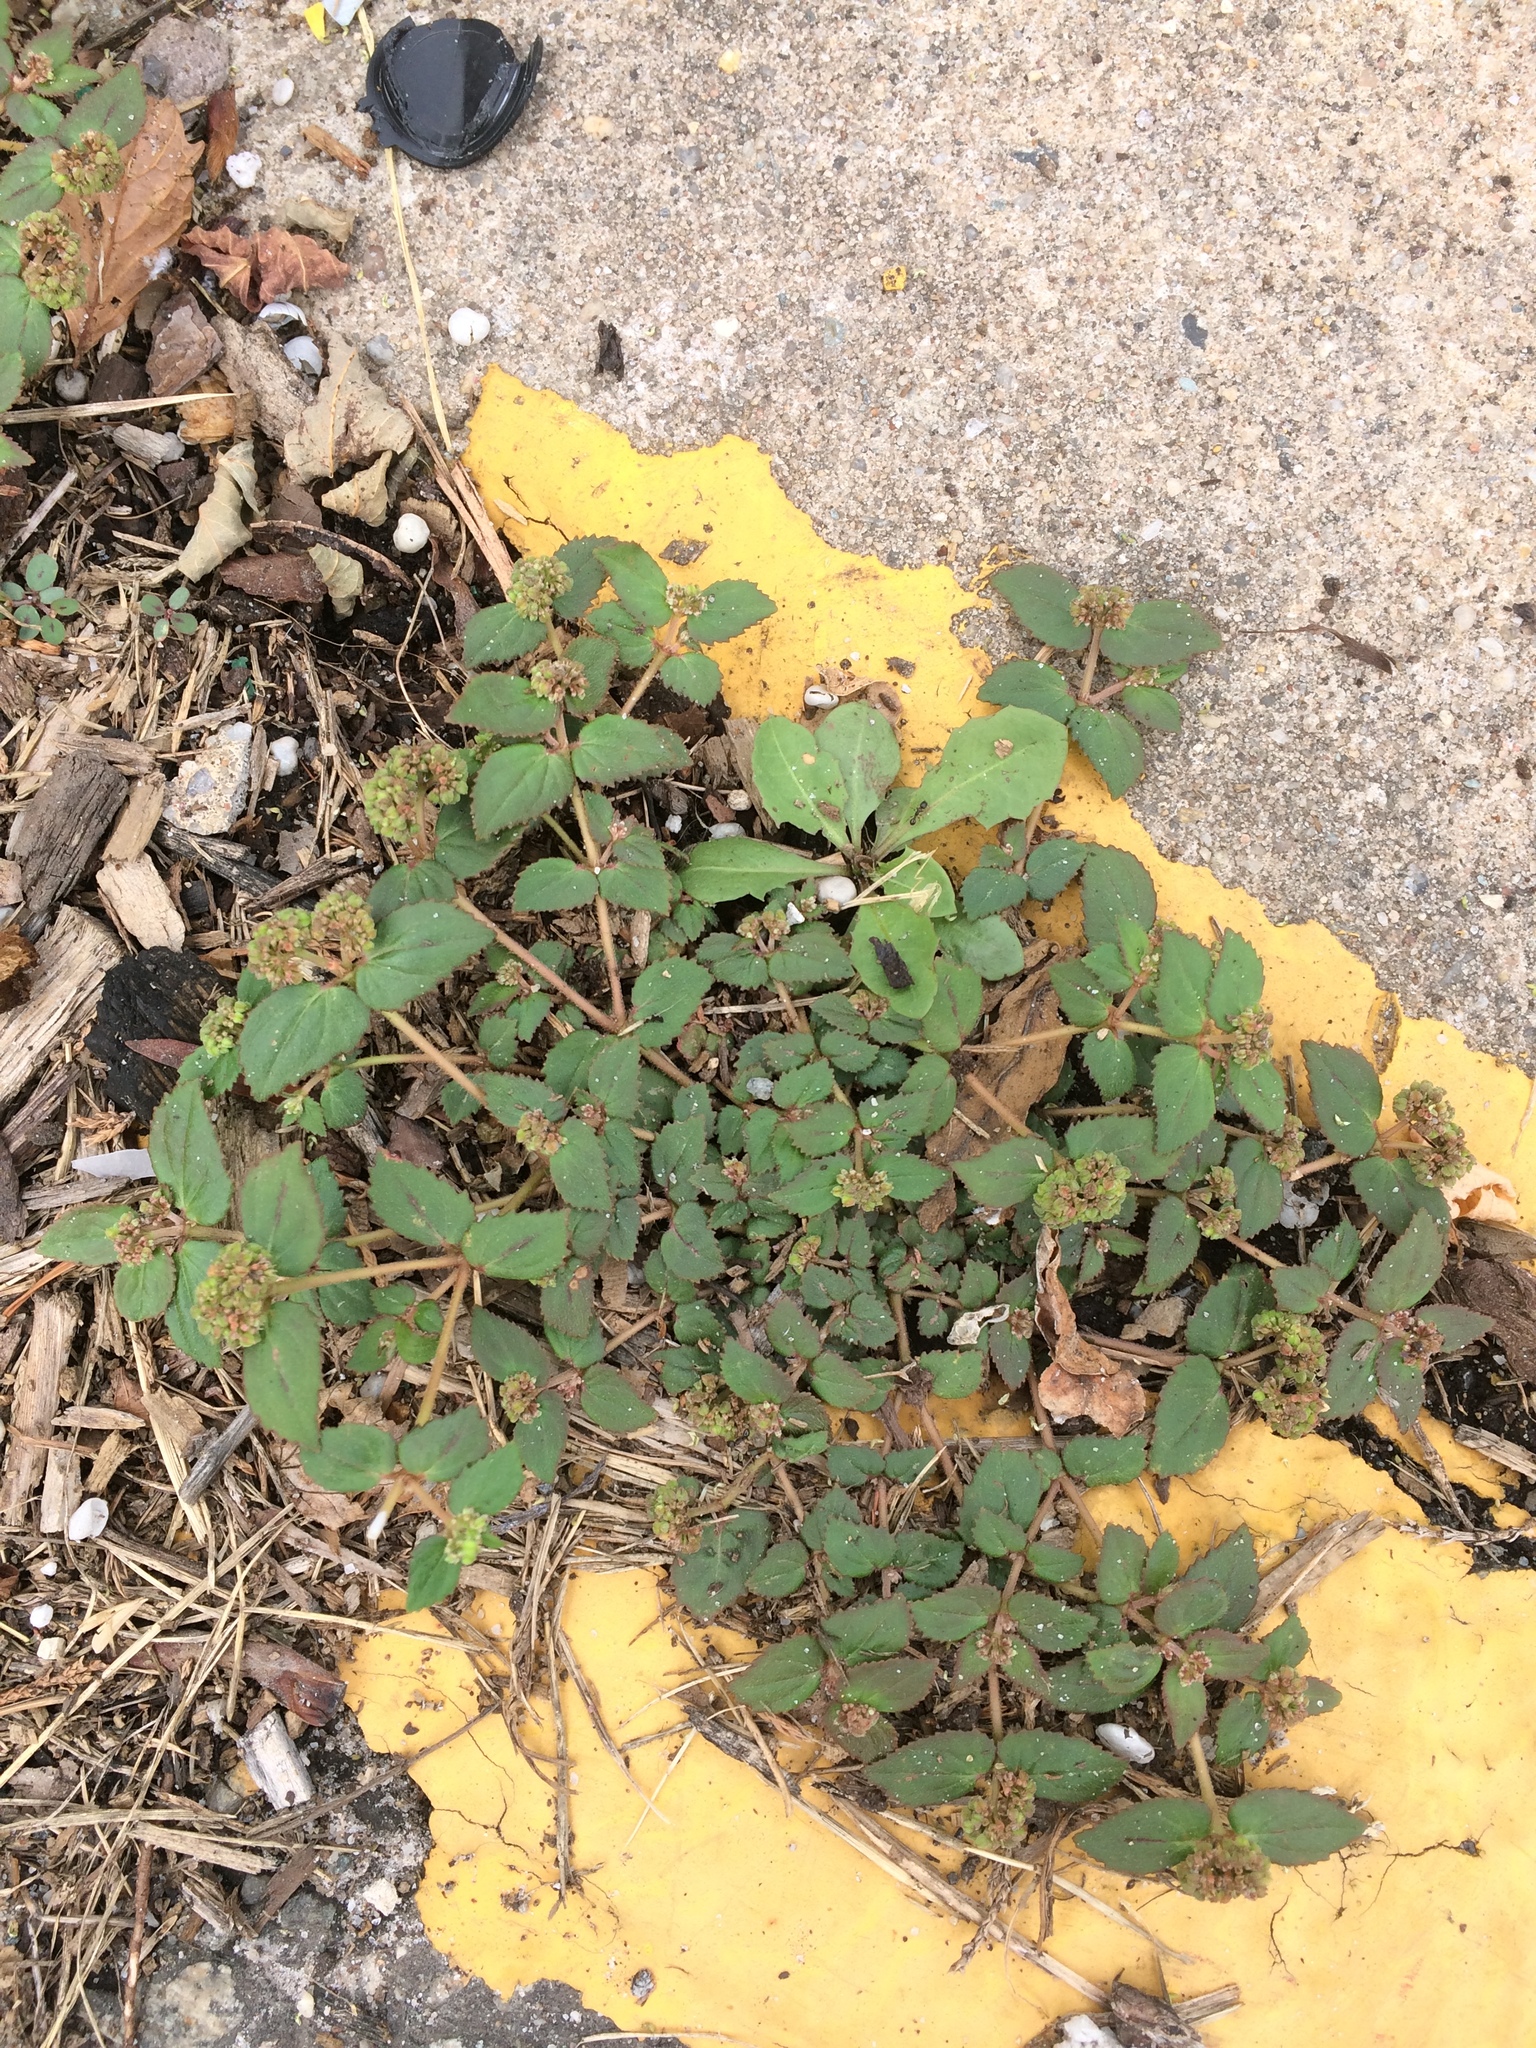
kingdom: Plantae
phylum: Tracheophyta
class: Magnoliopsida
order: Malpighiales
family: Euphorbiaceae
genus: Euphorbia
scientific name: Euphorbia ophthalmica
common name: Florida hammock sandmat
